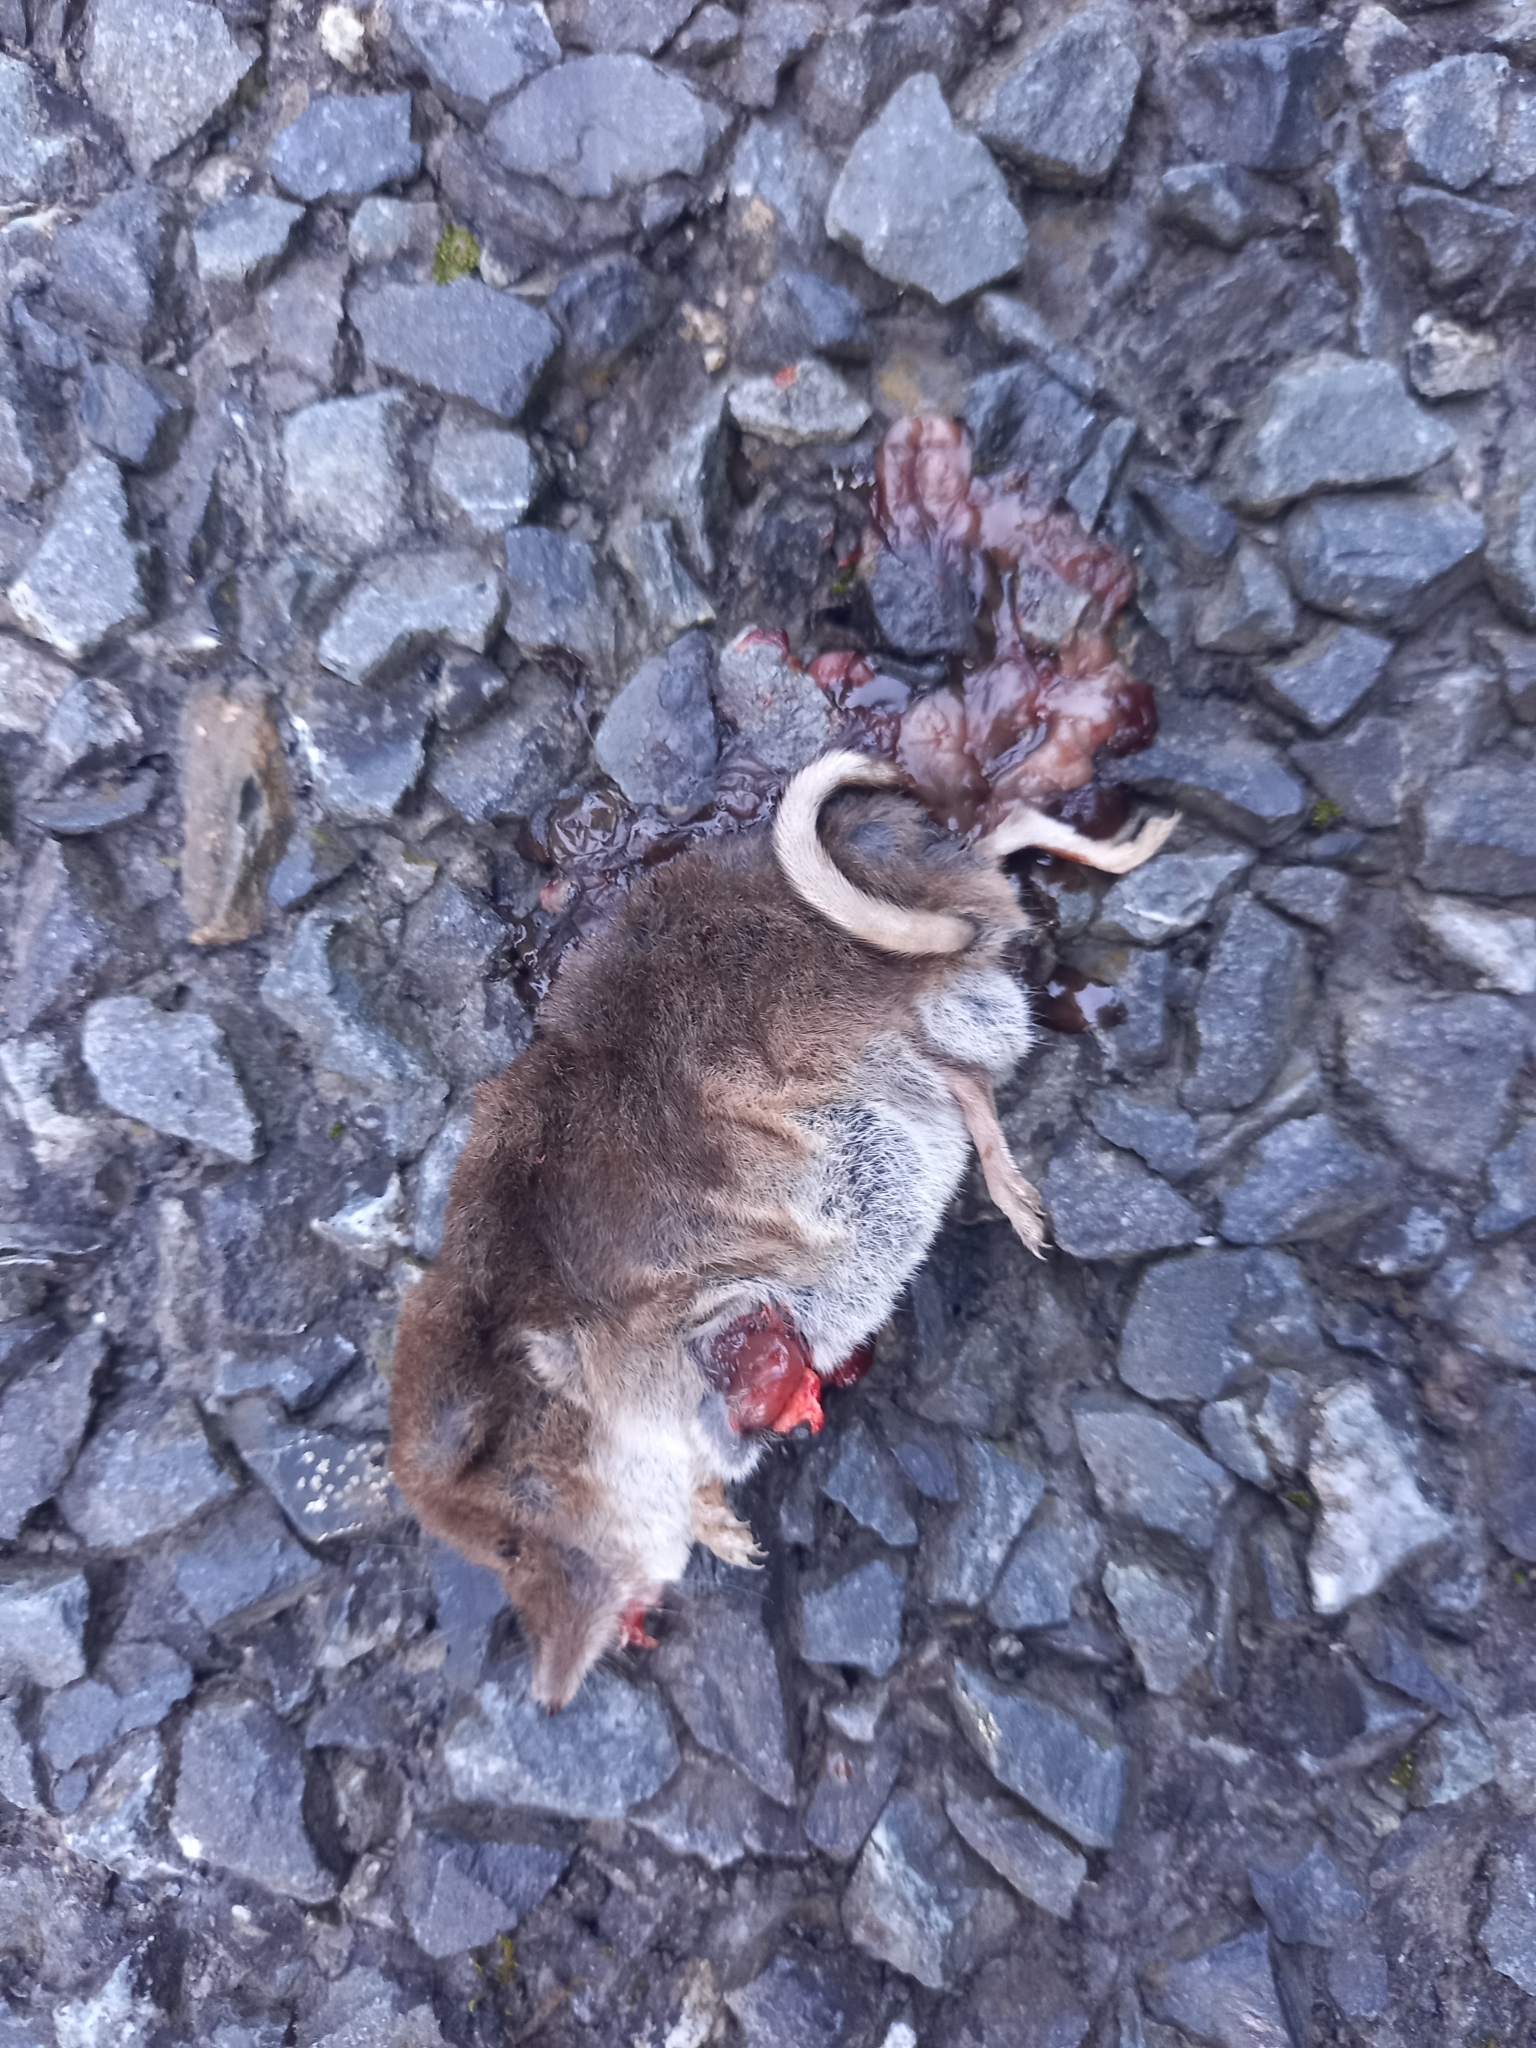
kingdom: Animalia
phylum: Chordata
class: Mammalia
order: Soricomorpha
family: Soricidae
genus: Sorex
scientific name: Sorex araneus
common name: Common shrew
